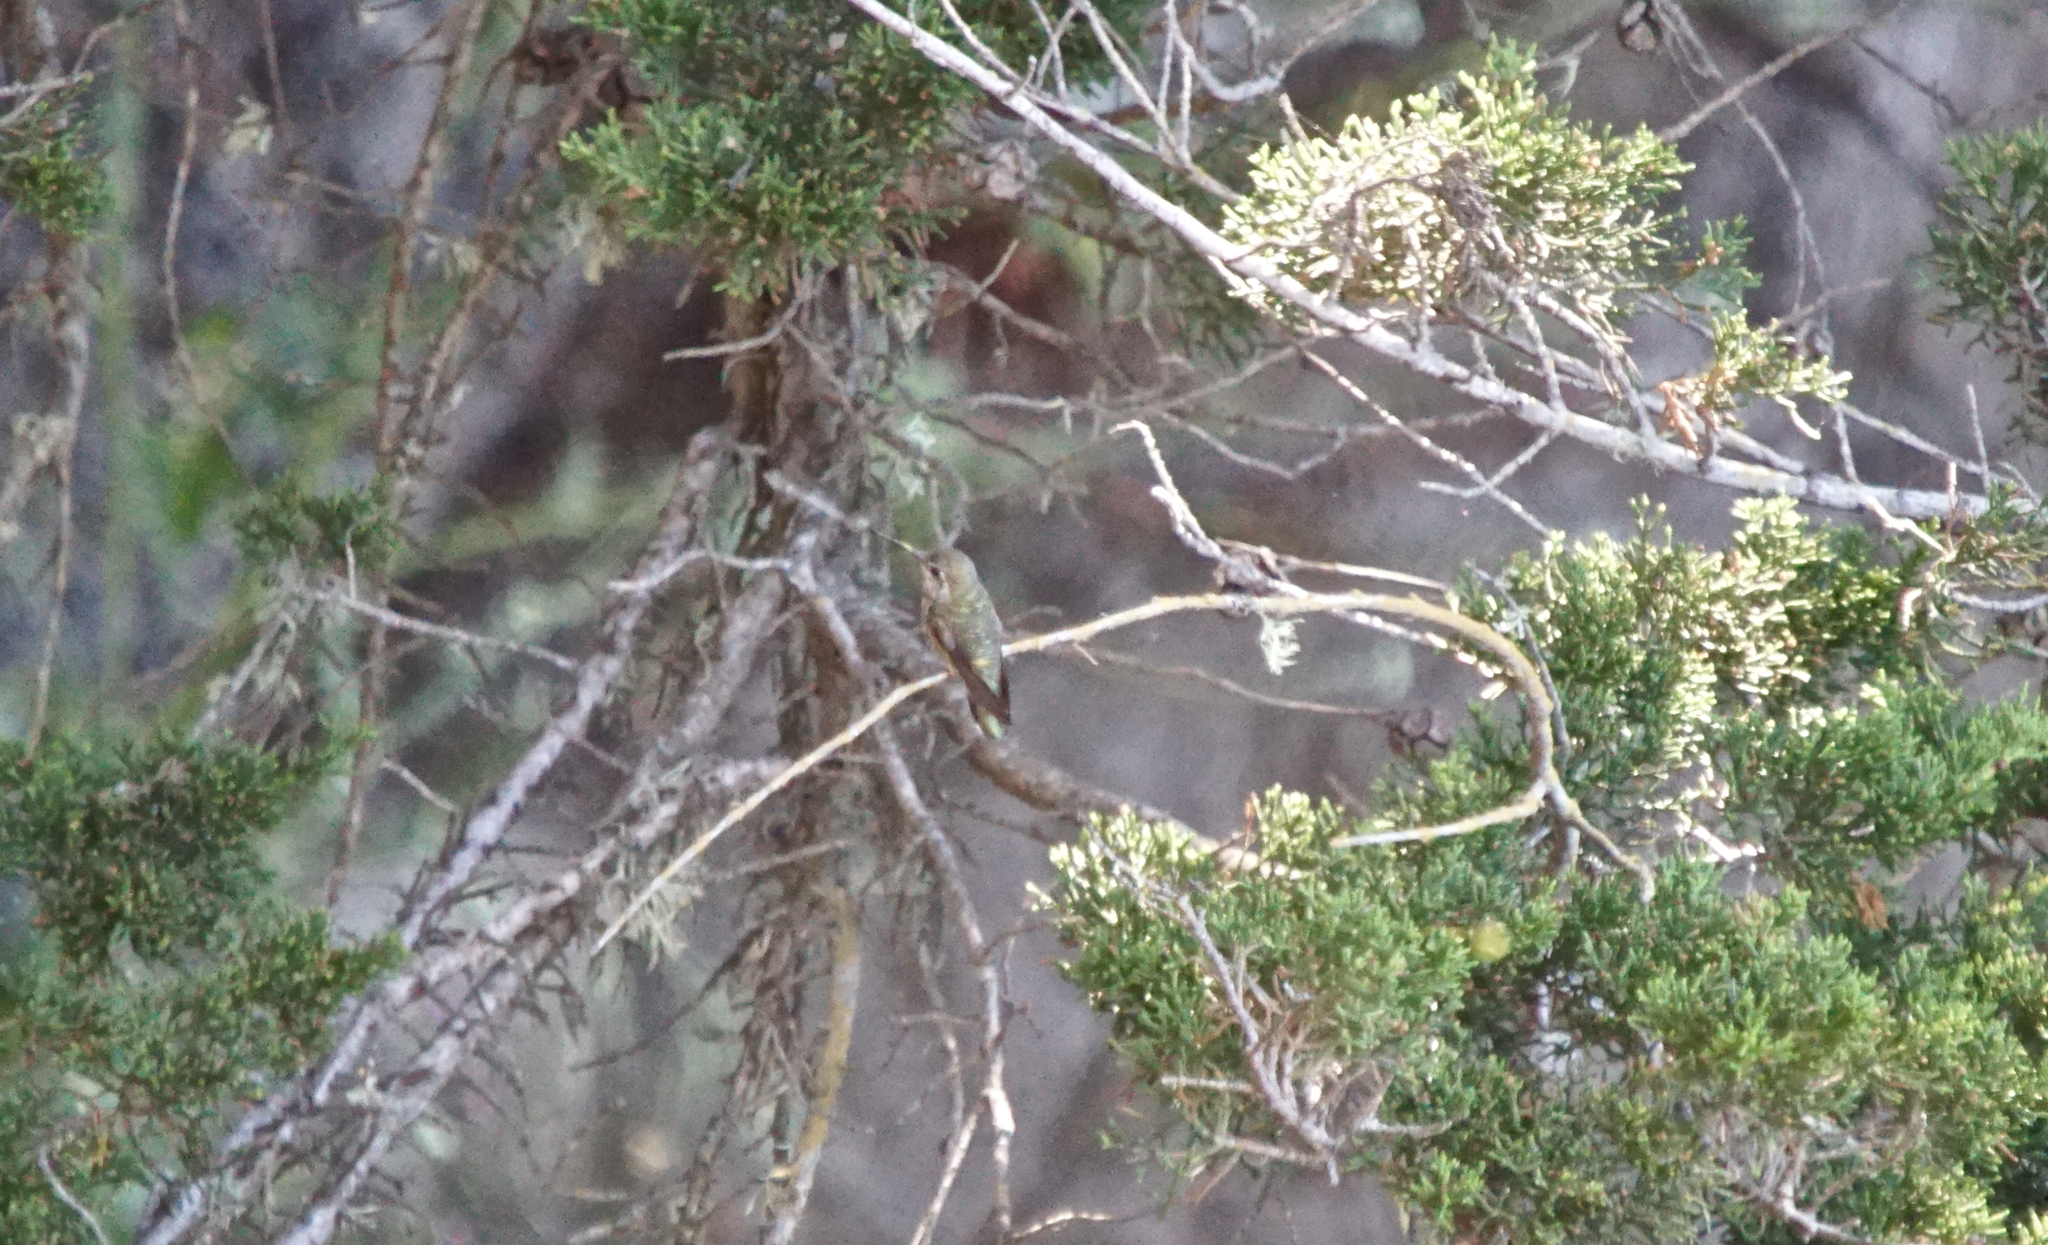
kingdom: Animalia
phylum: Chordata
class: Aves
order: Apodiformes
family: Trochilidae
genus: Calypte
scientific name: Calypte anna
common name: Anna's hummingbird
